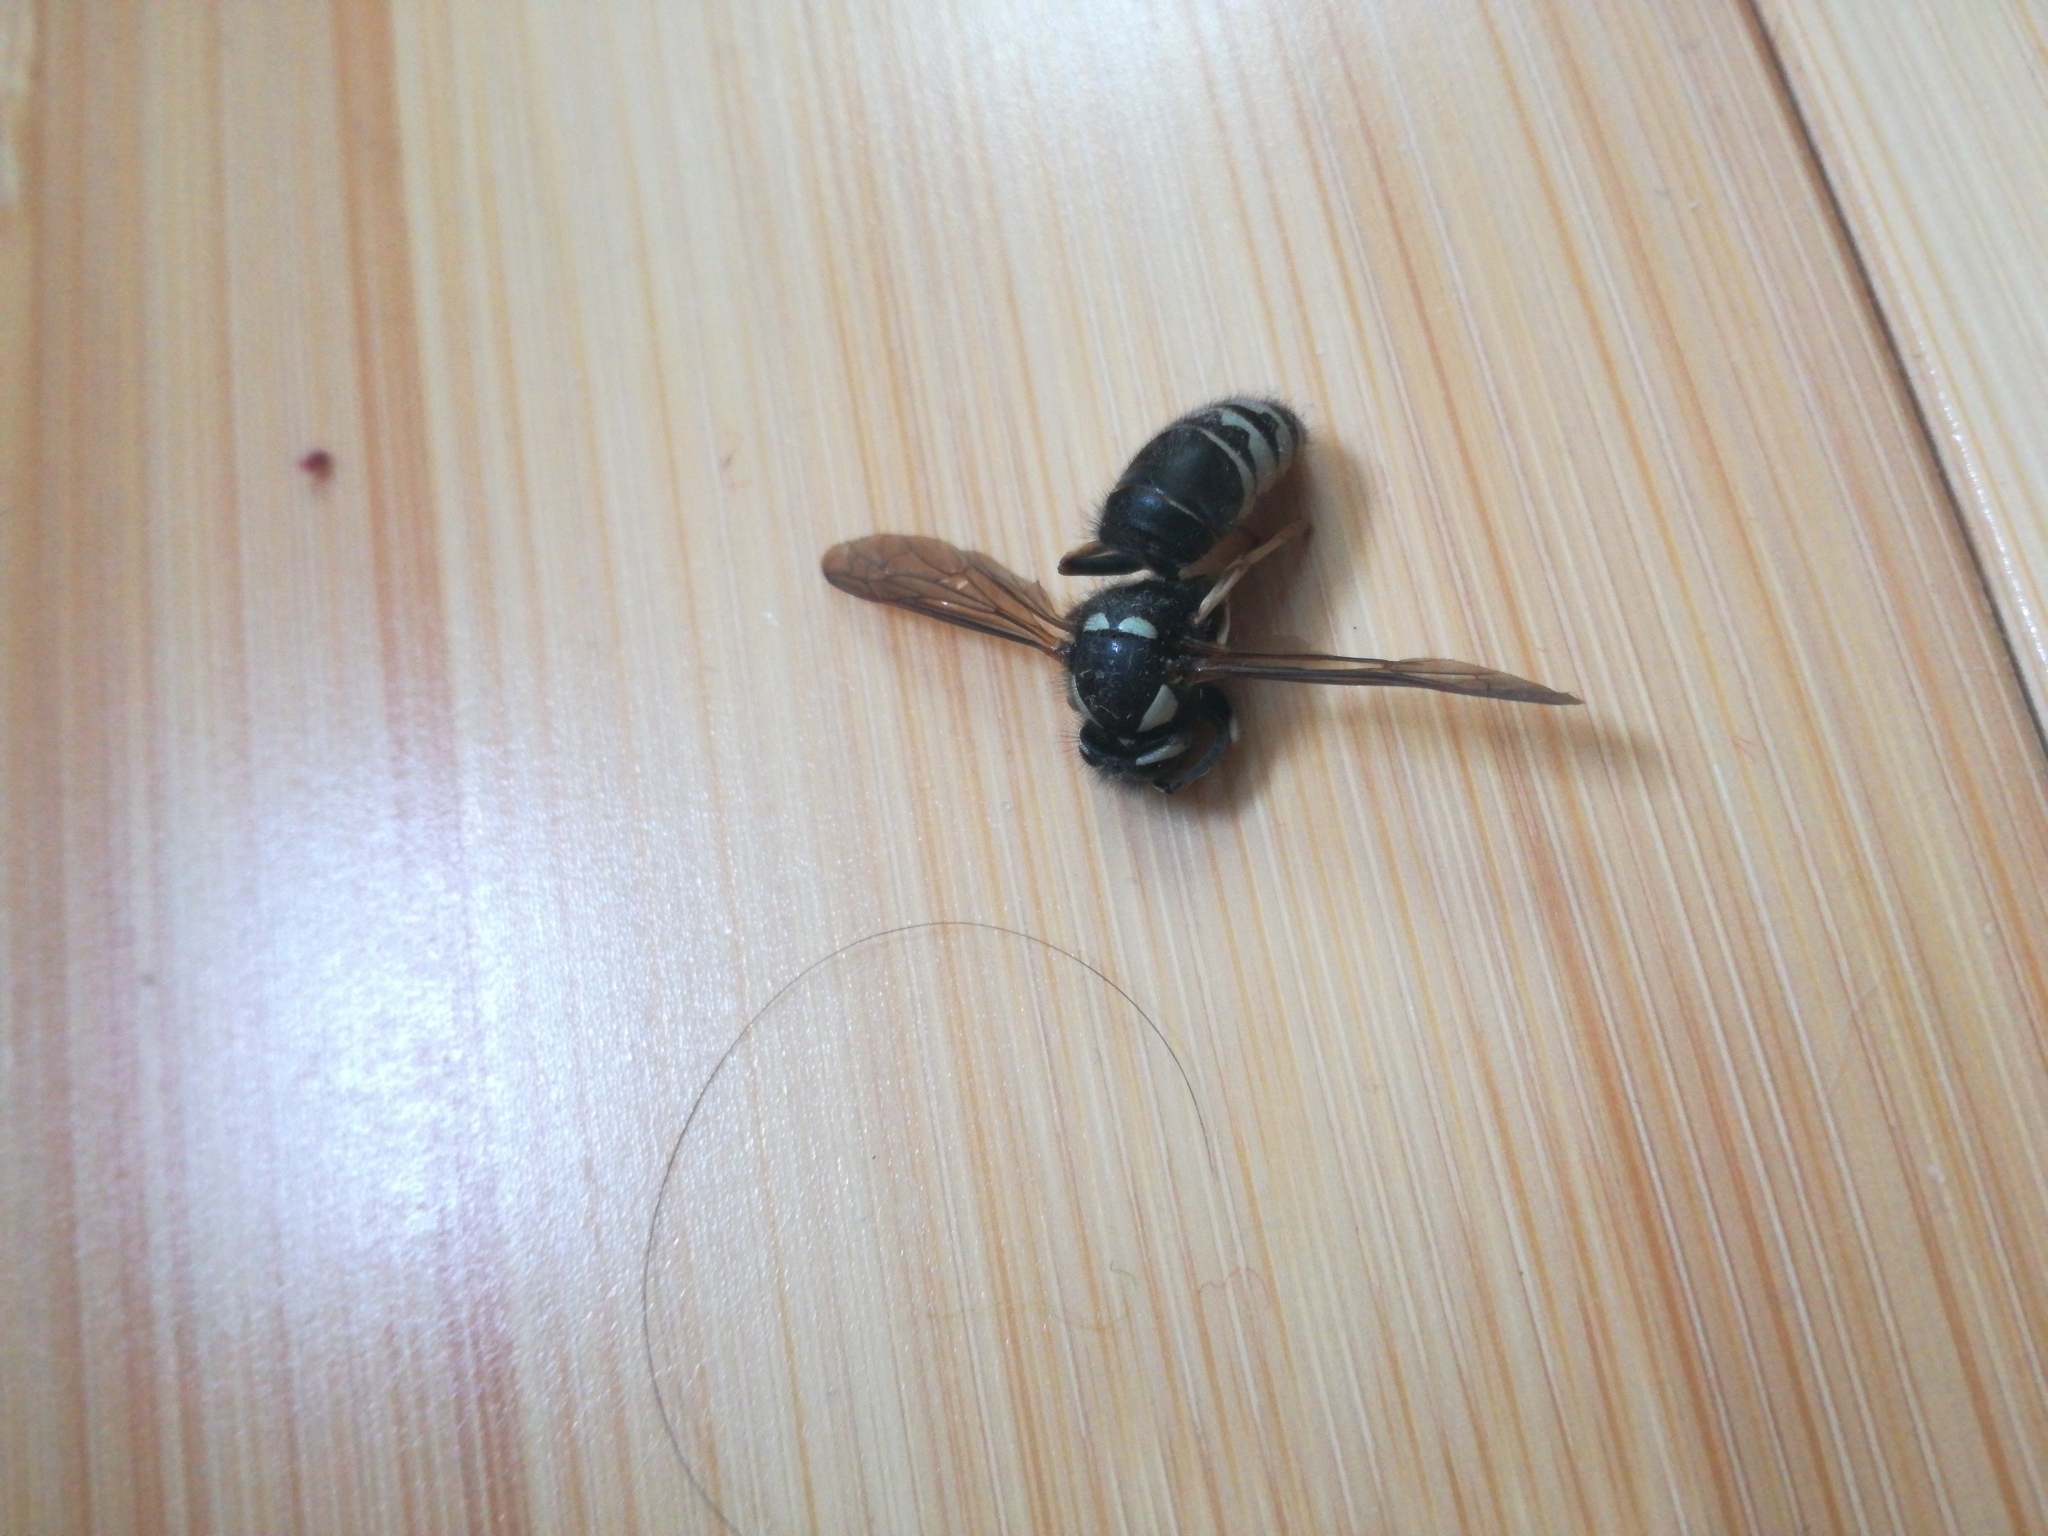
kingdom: Animalia
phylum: Arthropoda
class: Insecta
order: Hymenoptera
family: Vespidae
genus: Vespula
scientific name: Vespula consobrina
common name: Blackjacket
